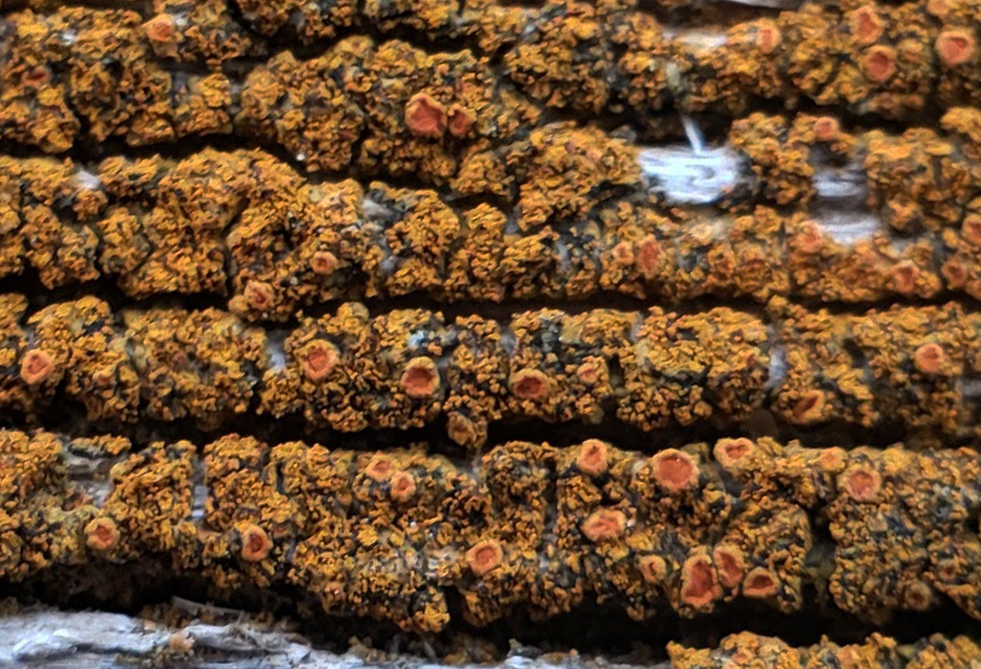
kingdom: Fungi
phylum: Ascomycota
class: Lecanoromycetes
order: Teloschistales
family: Teloschistaceae
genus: Tayloriellina
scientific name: Tayloriellina microphyllina
